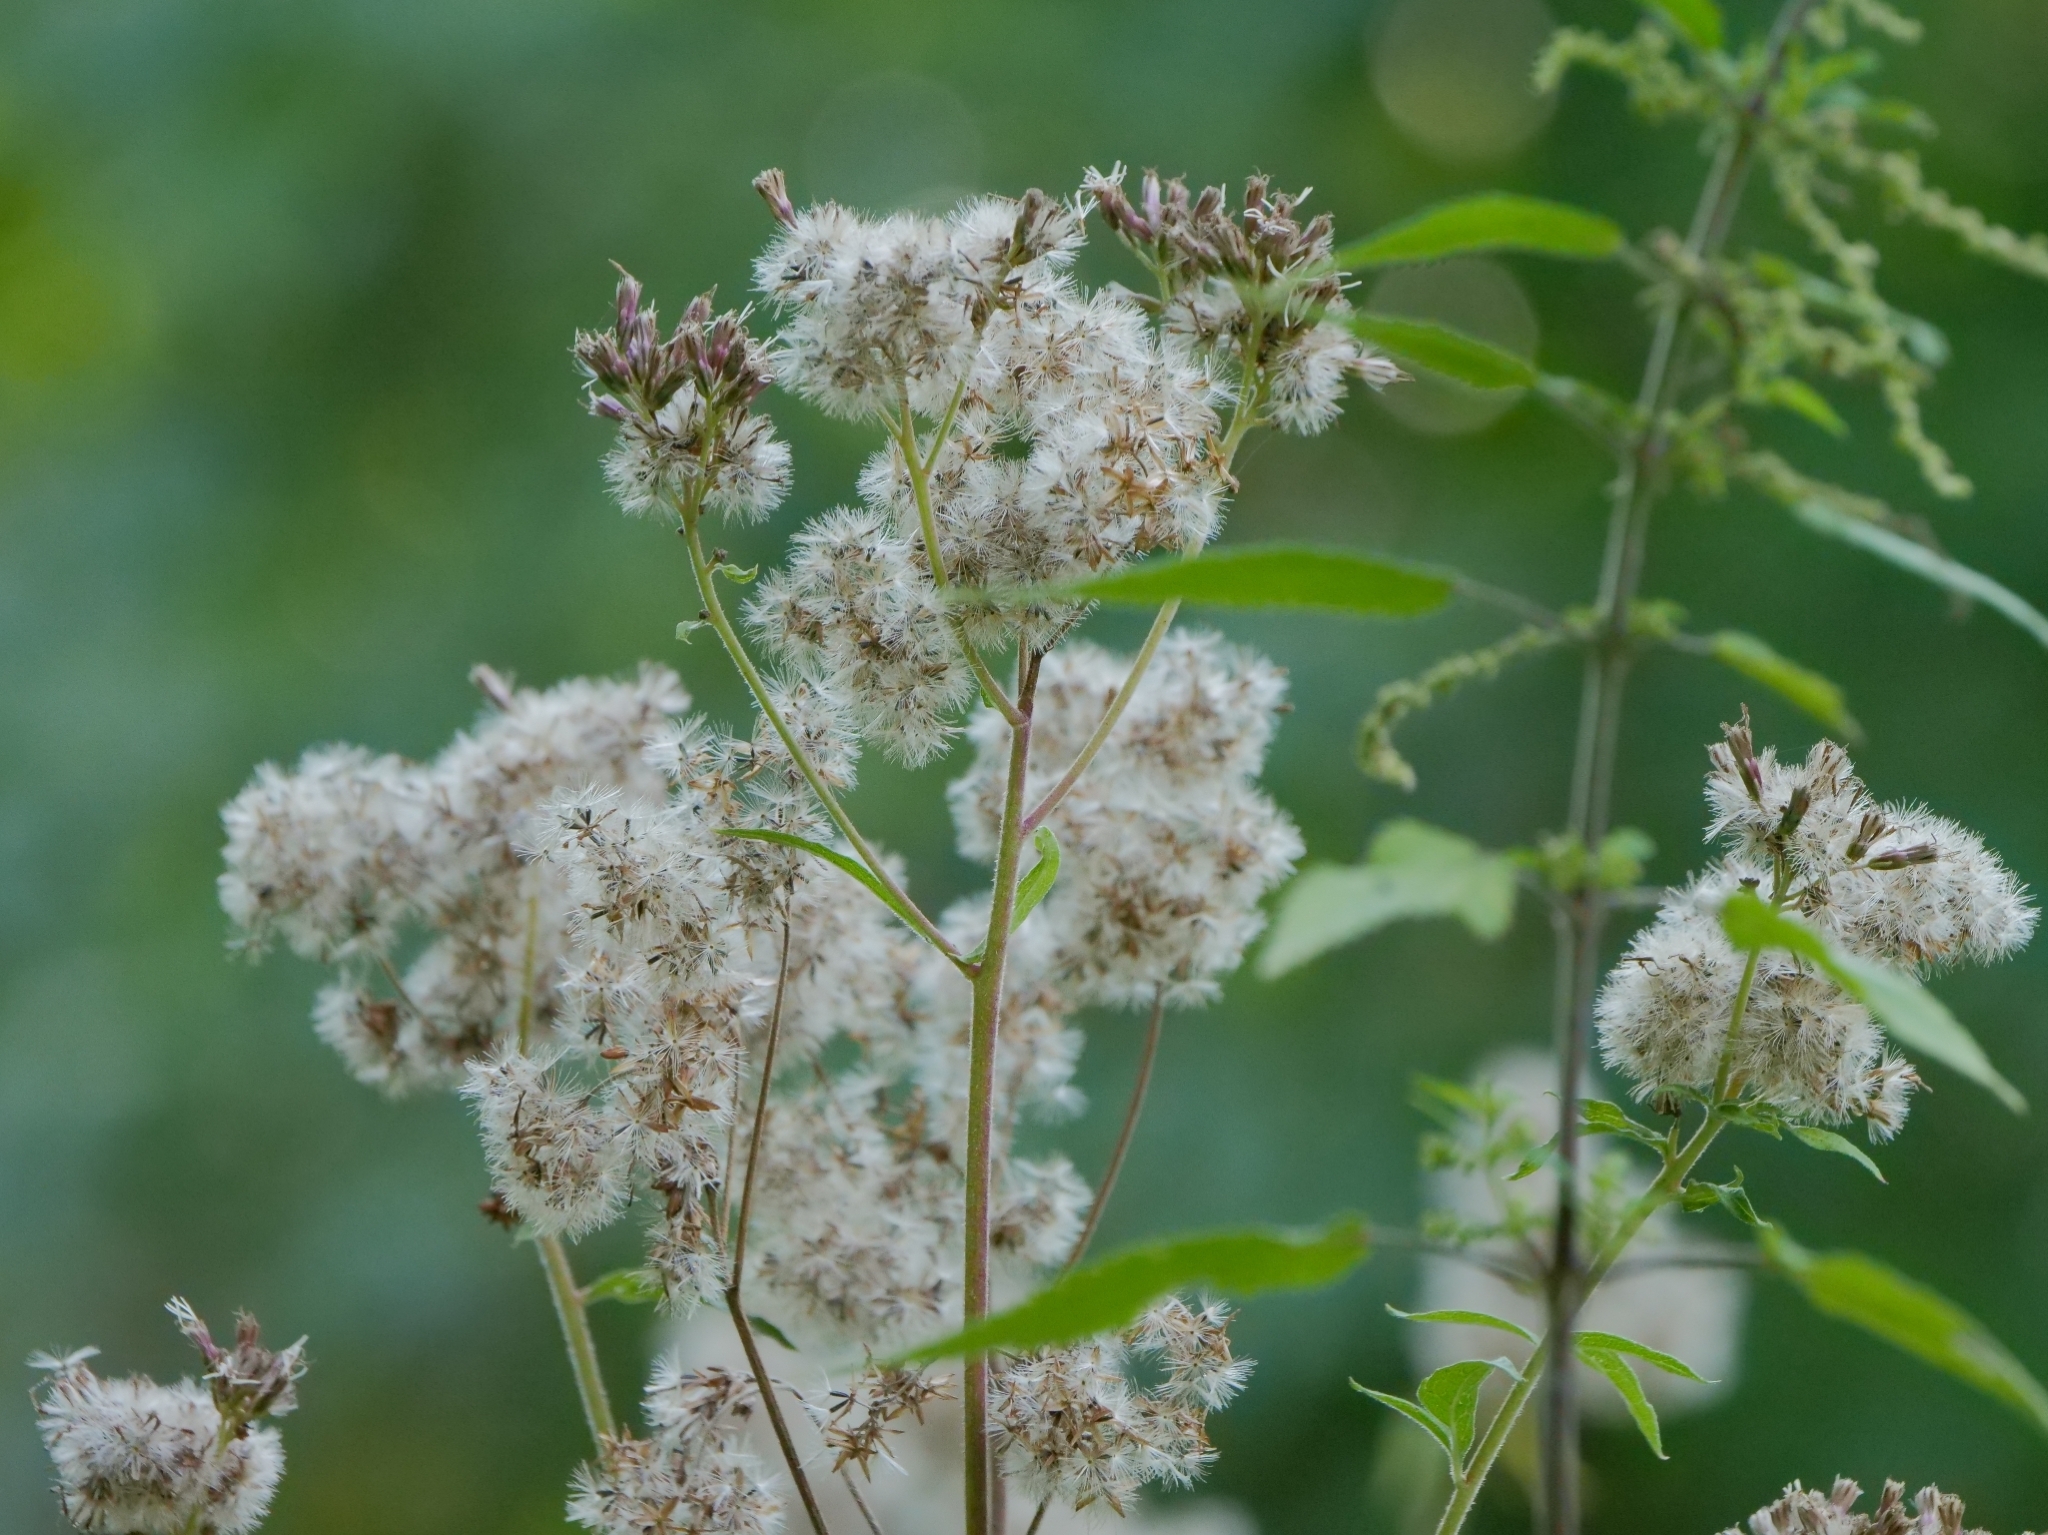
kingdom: Plantae
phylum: Tracheophyta
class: Magnoliopsida
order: Asterales
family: Asteraceae
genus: Eupatorium
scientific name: Eupatorium cannabinum
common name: Hemp-agrimony
